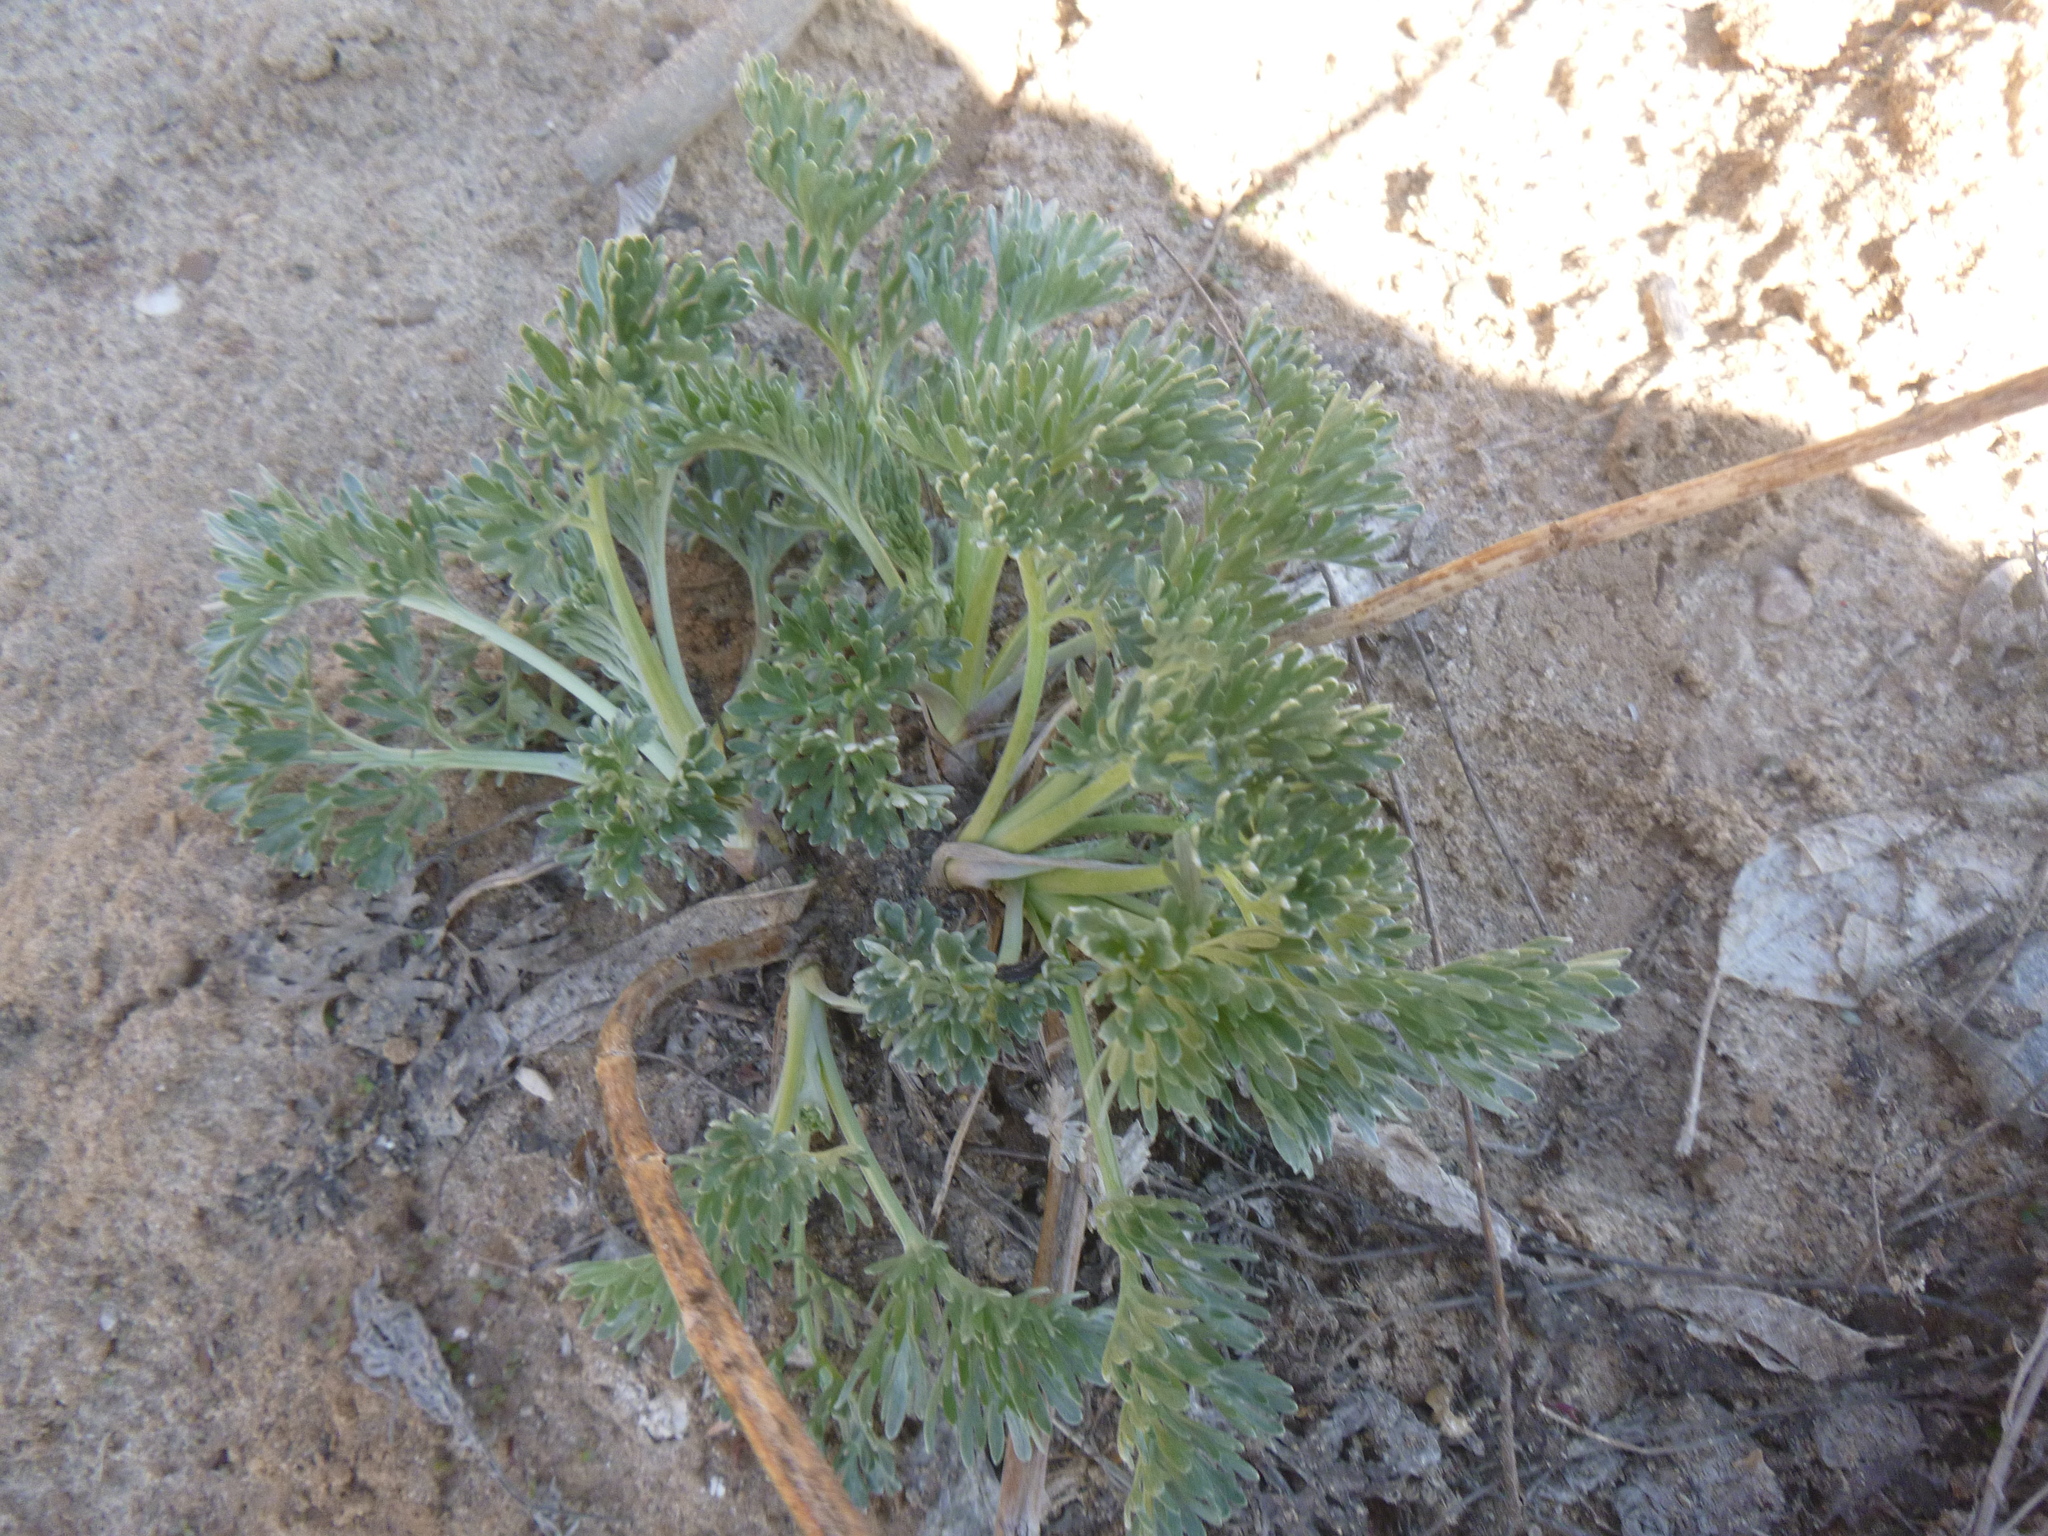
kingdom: Plantae
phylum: Tracheophyta
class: Magnoliopsida
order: Asterales
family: Asteraceae
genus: Artemisia
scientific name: Artemisia absinthium
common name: Wormwood
